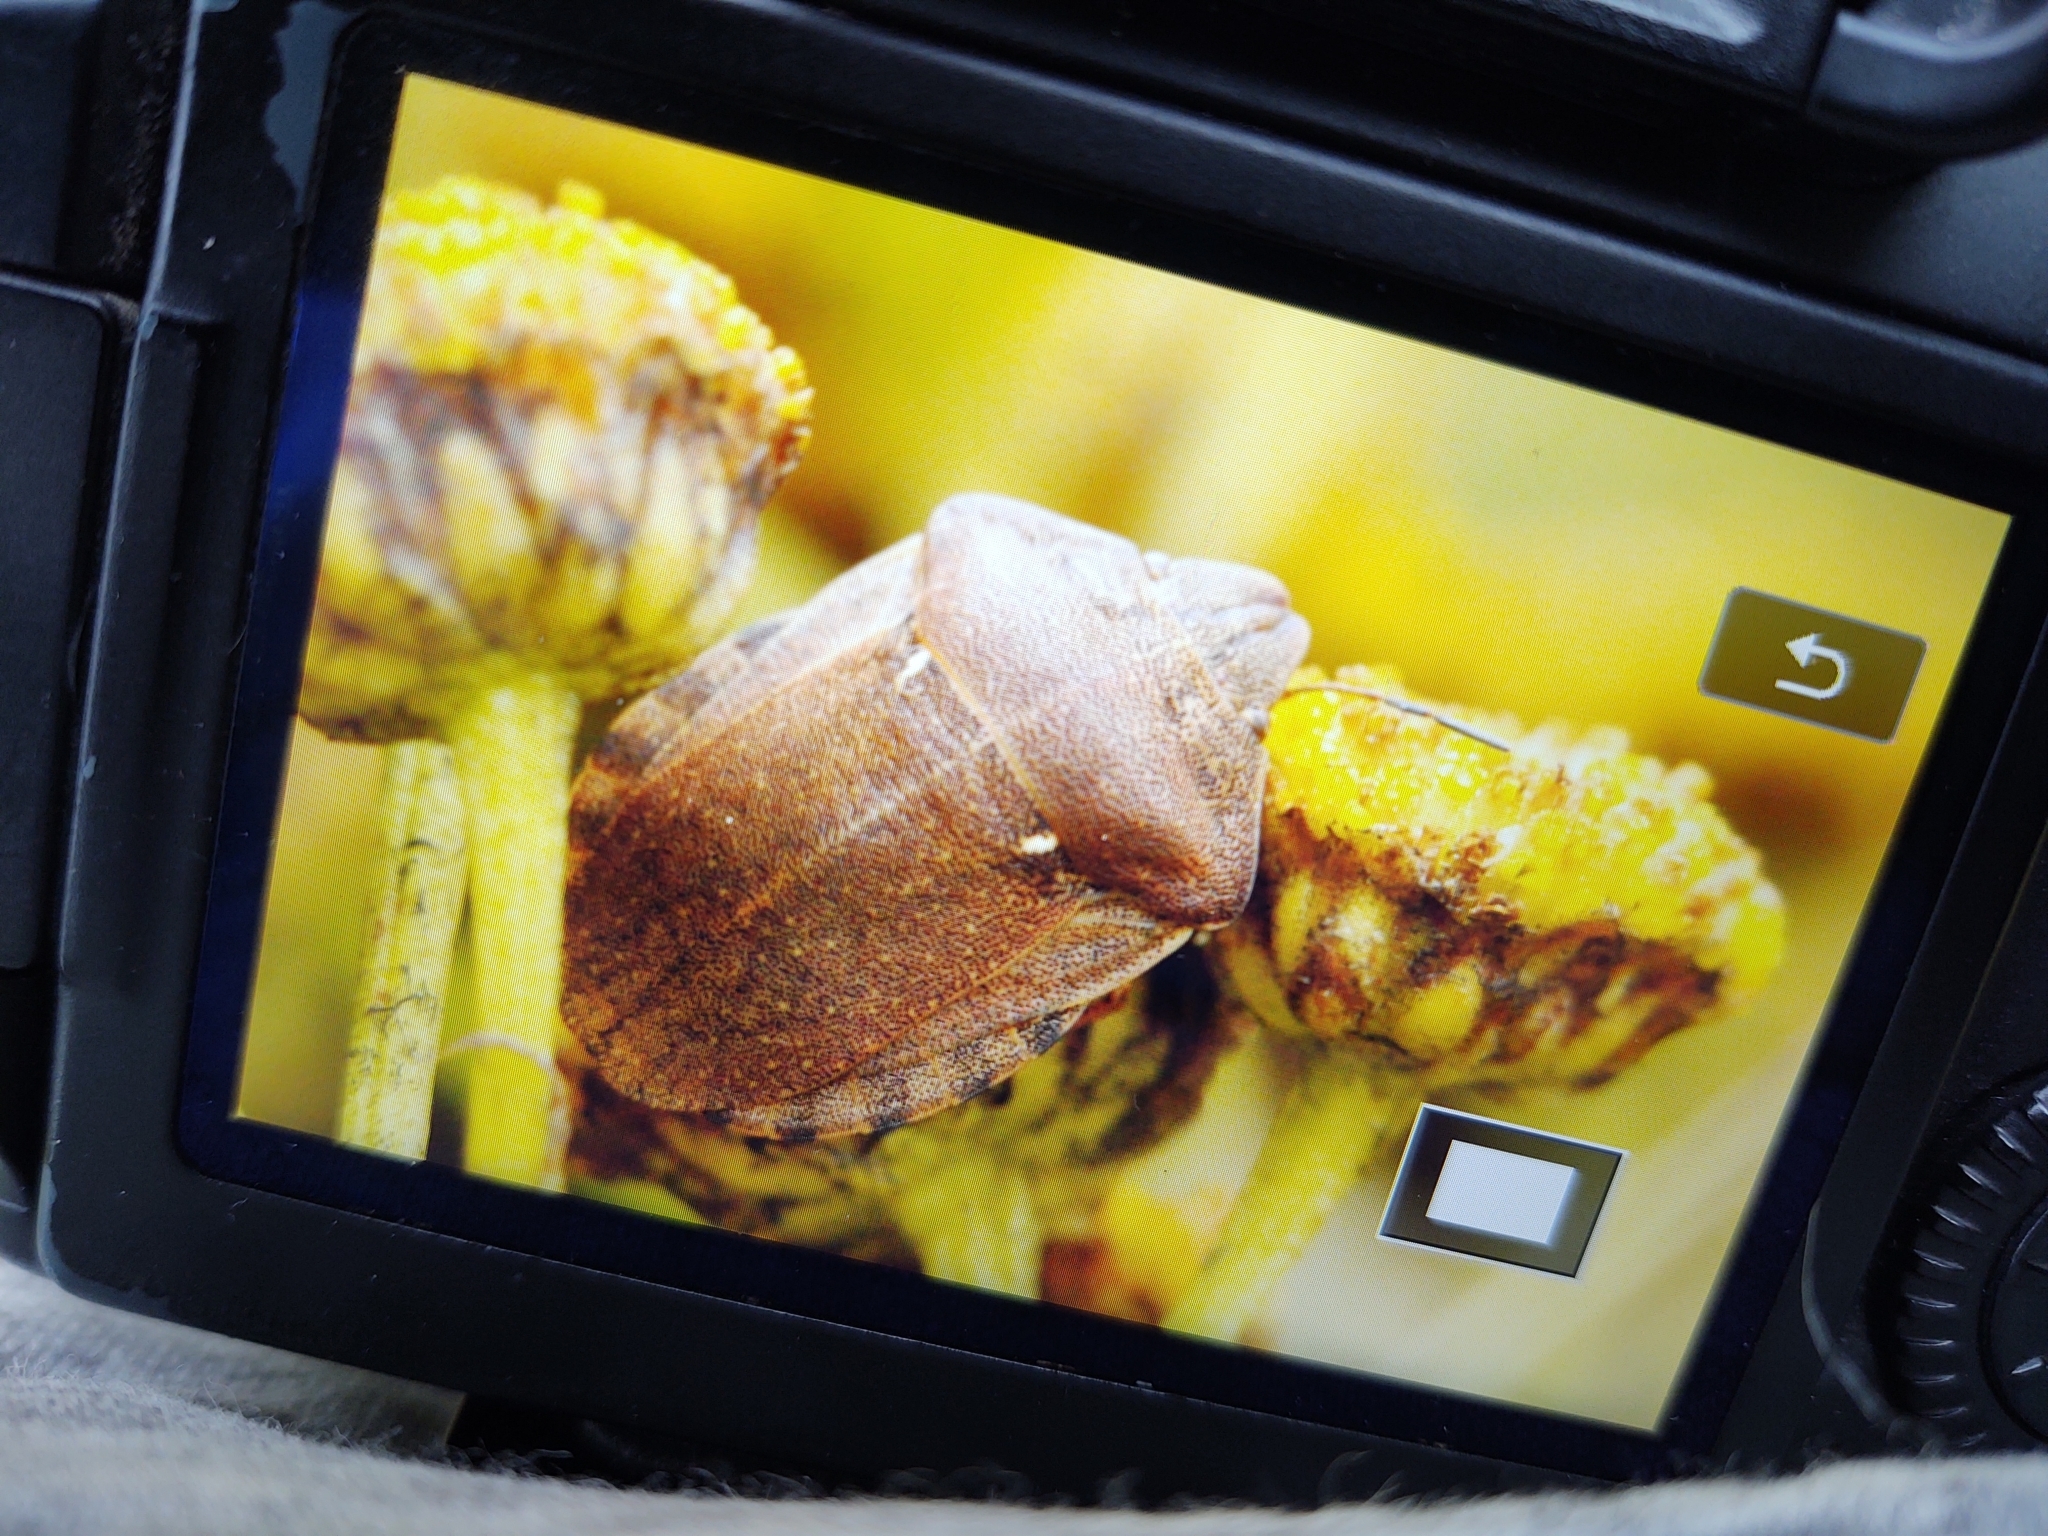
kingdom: Animalia
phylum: Arthropoda
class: Insecta
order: Hemiptera
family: Scutelleridae
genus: Eurygaster
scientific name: Eurygaster testudinaria
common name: Tortoise bug
